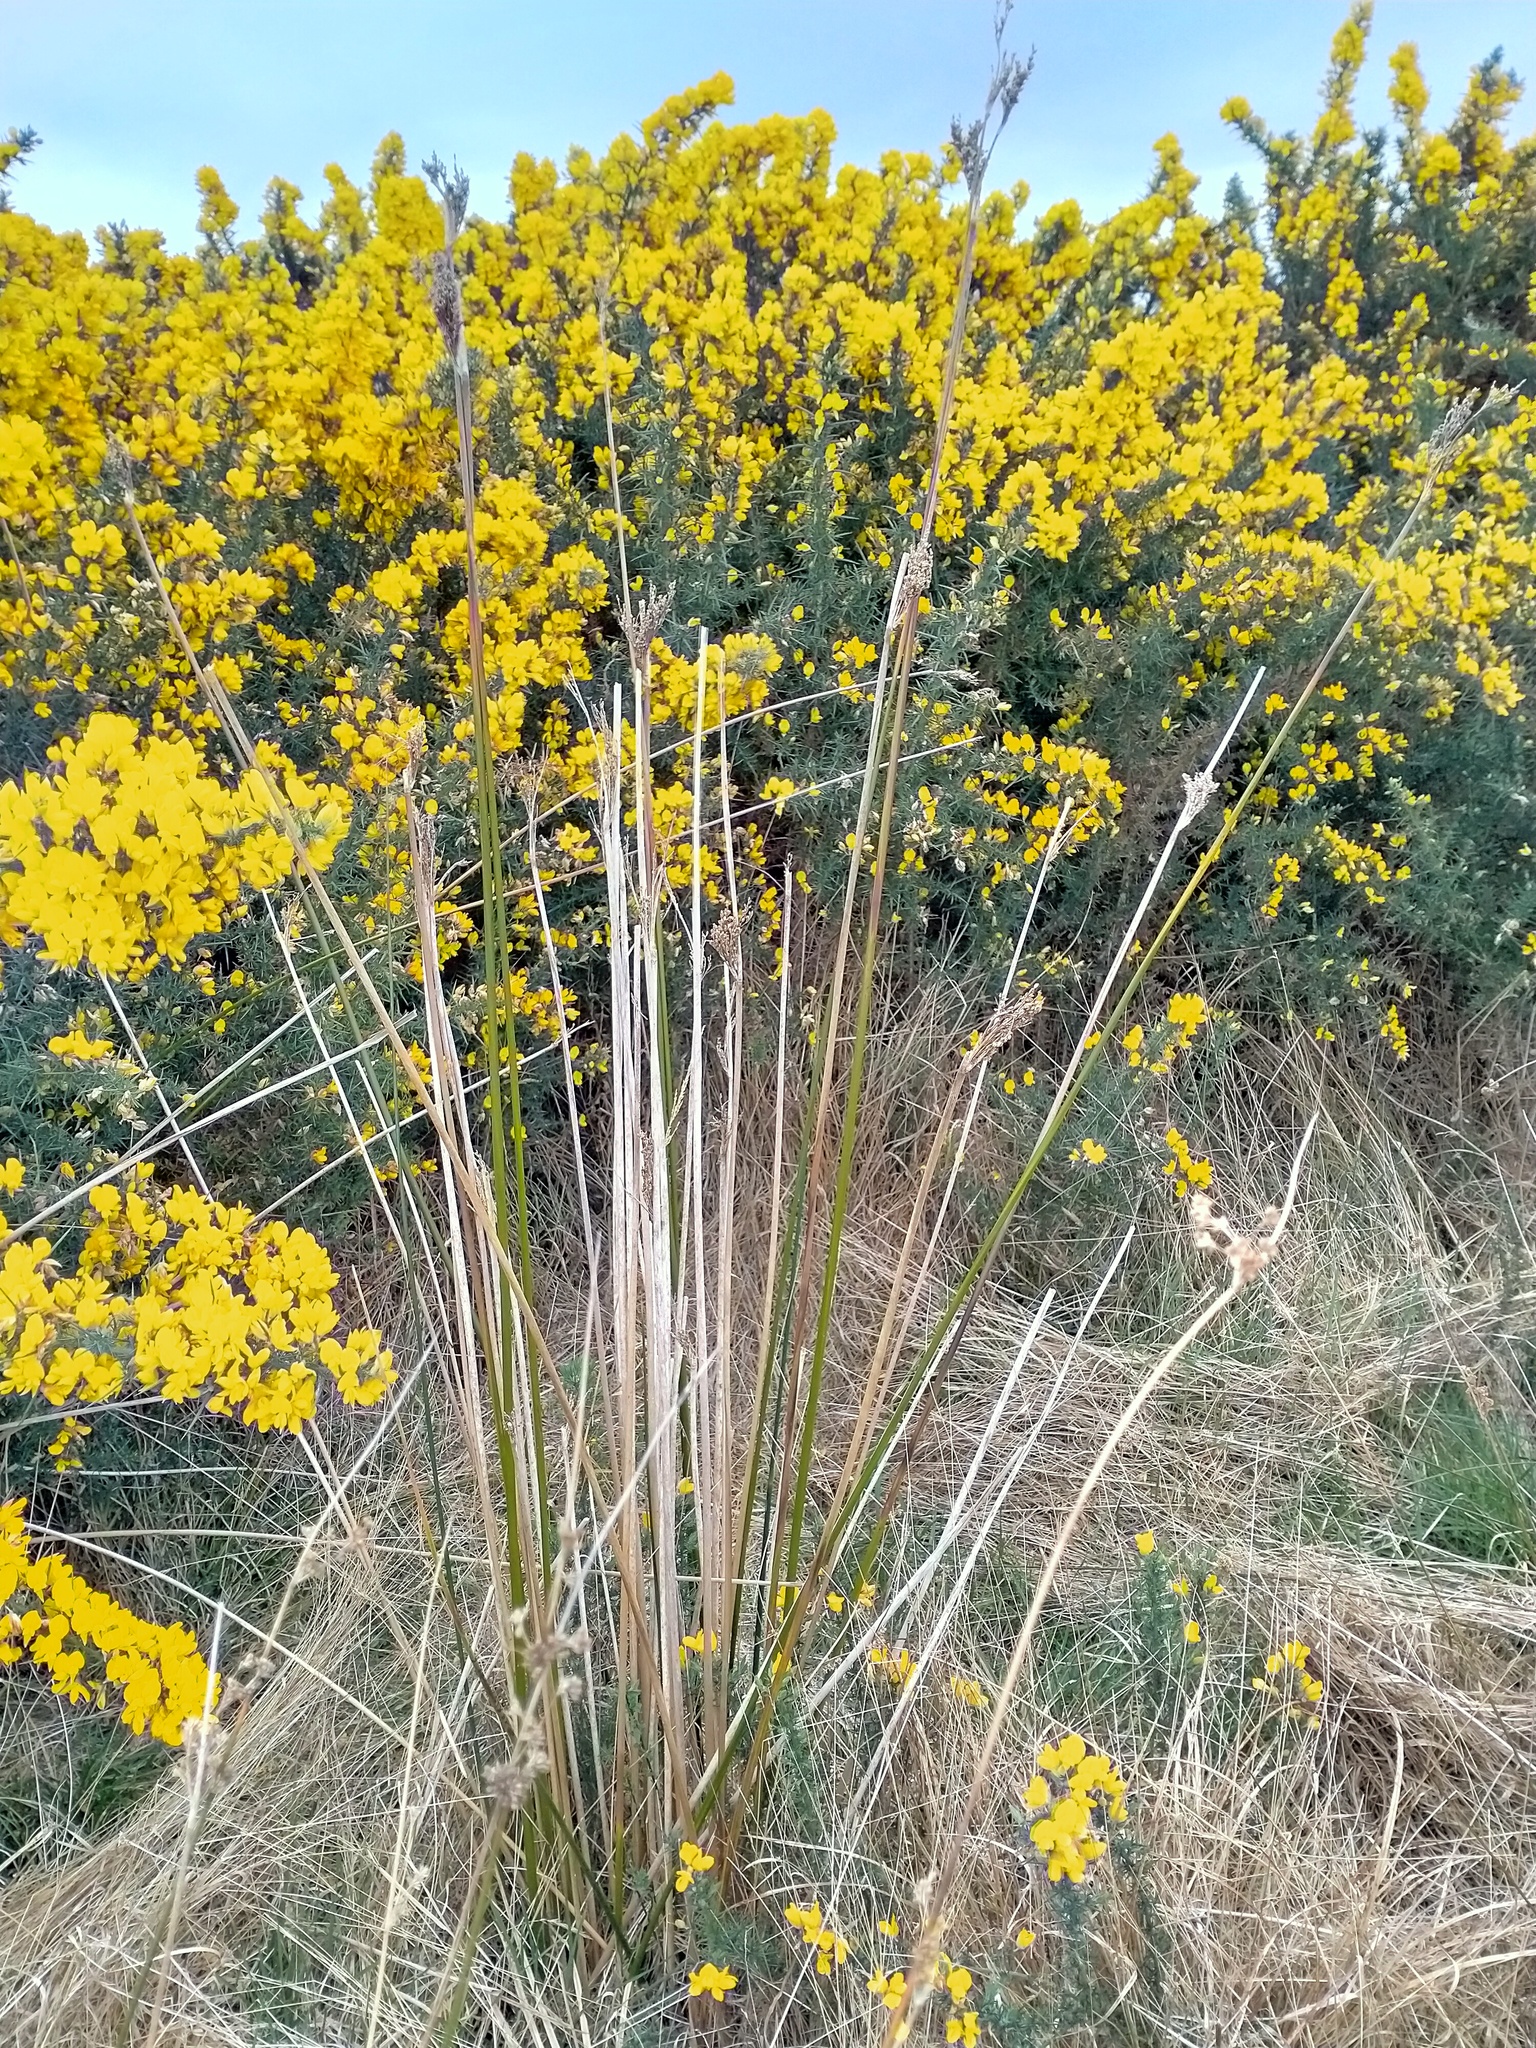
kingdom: Plantae
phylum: Tracheophyta
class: Liliopsida
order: Poales
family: Juncaceae
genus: Juncus
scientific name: Juncus pallidus
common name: Great soft-rush
